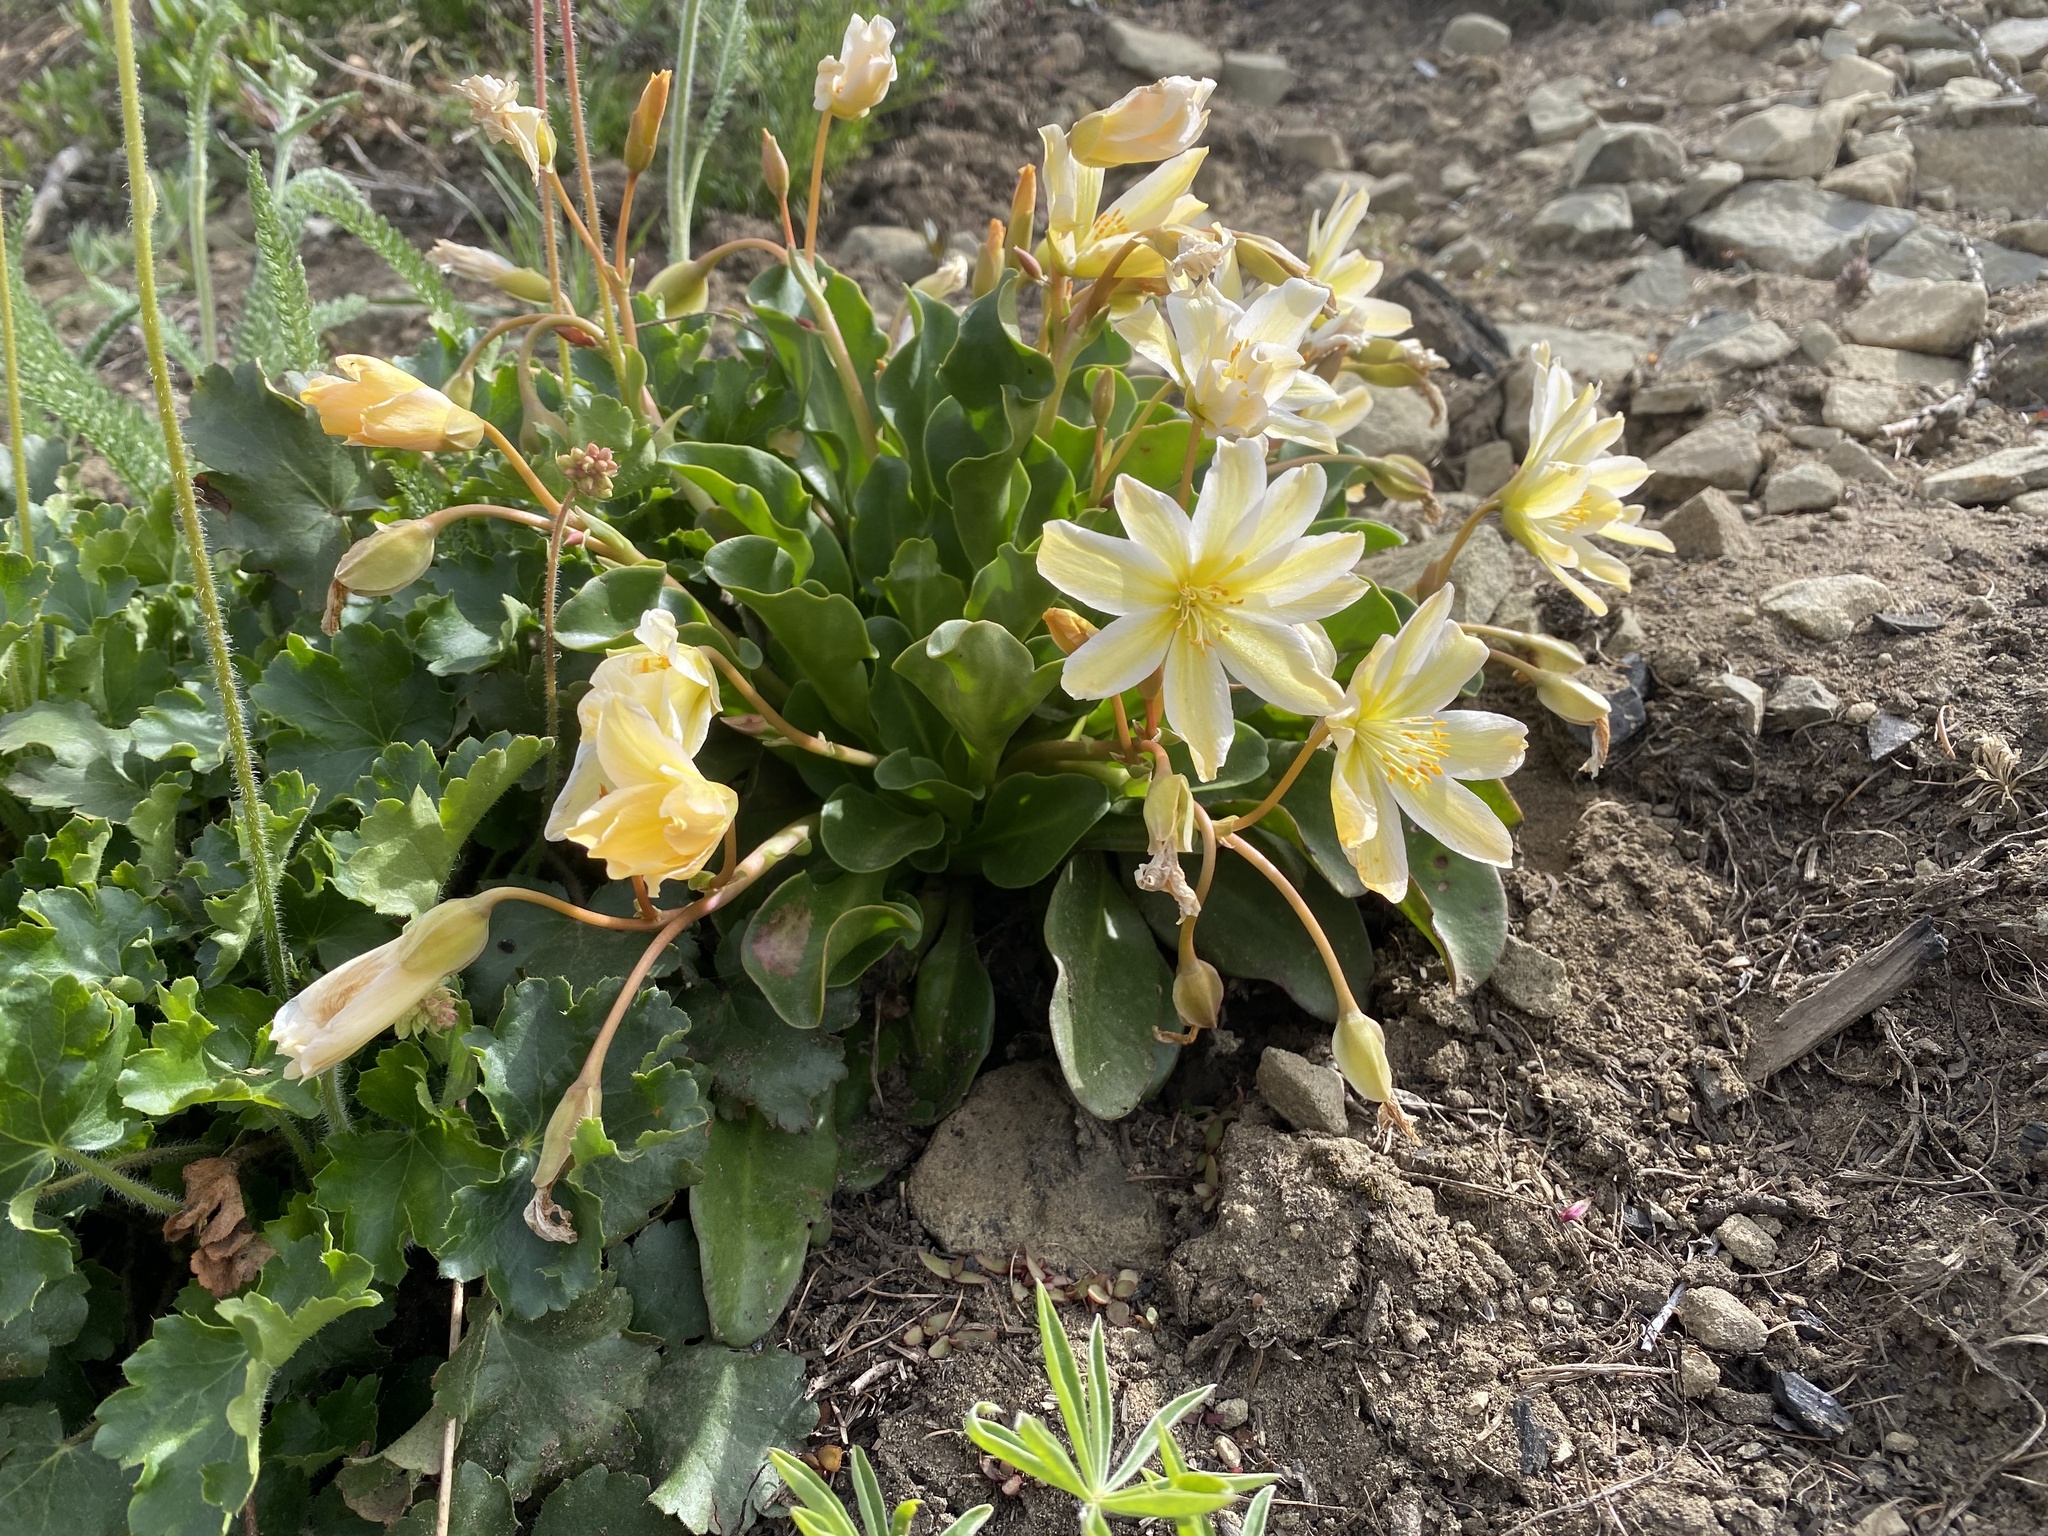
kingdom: Plantae
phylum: Tracheophyta
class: Magnoliopsida
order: Caryophyllales
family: Montiaceae
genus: Lewisiopsis
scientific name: Lewisiopsis tweedyi
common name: Tweedy's pussypaws
